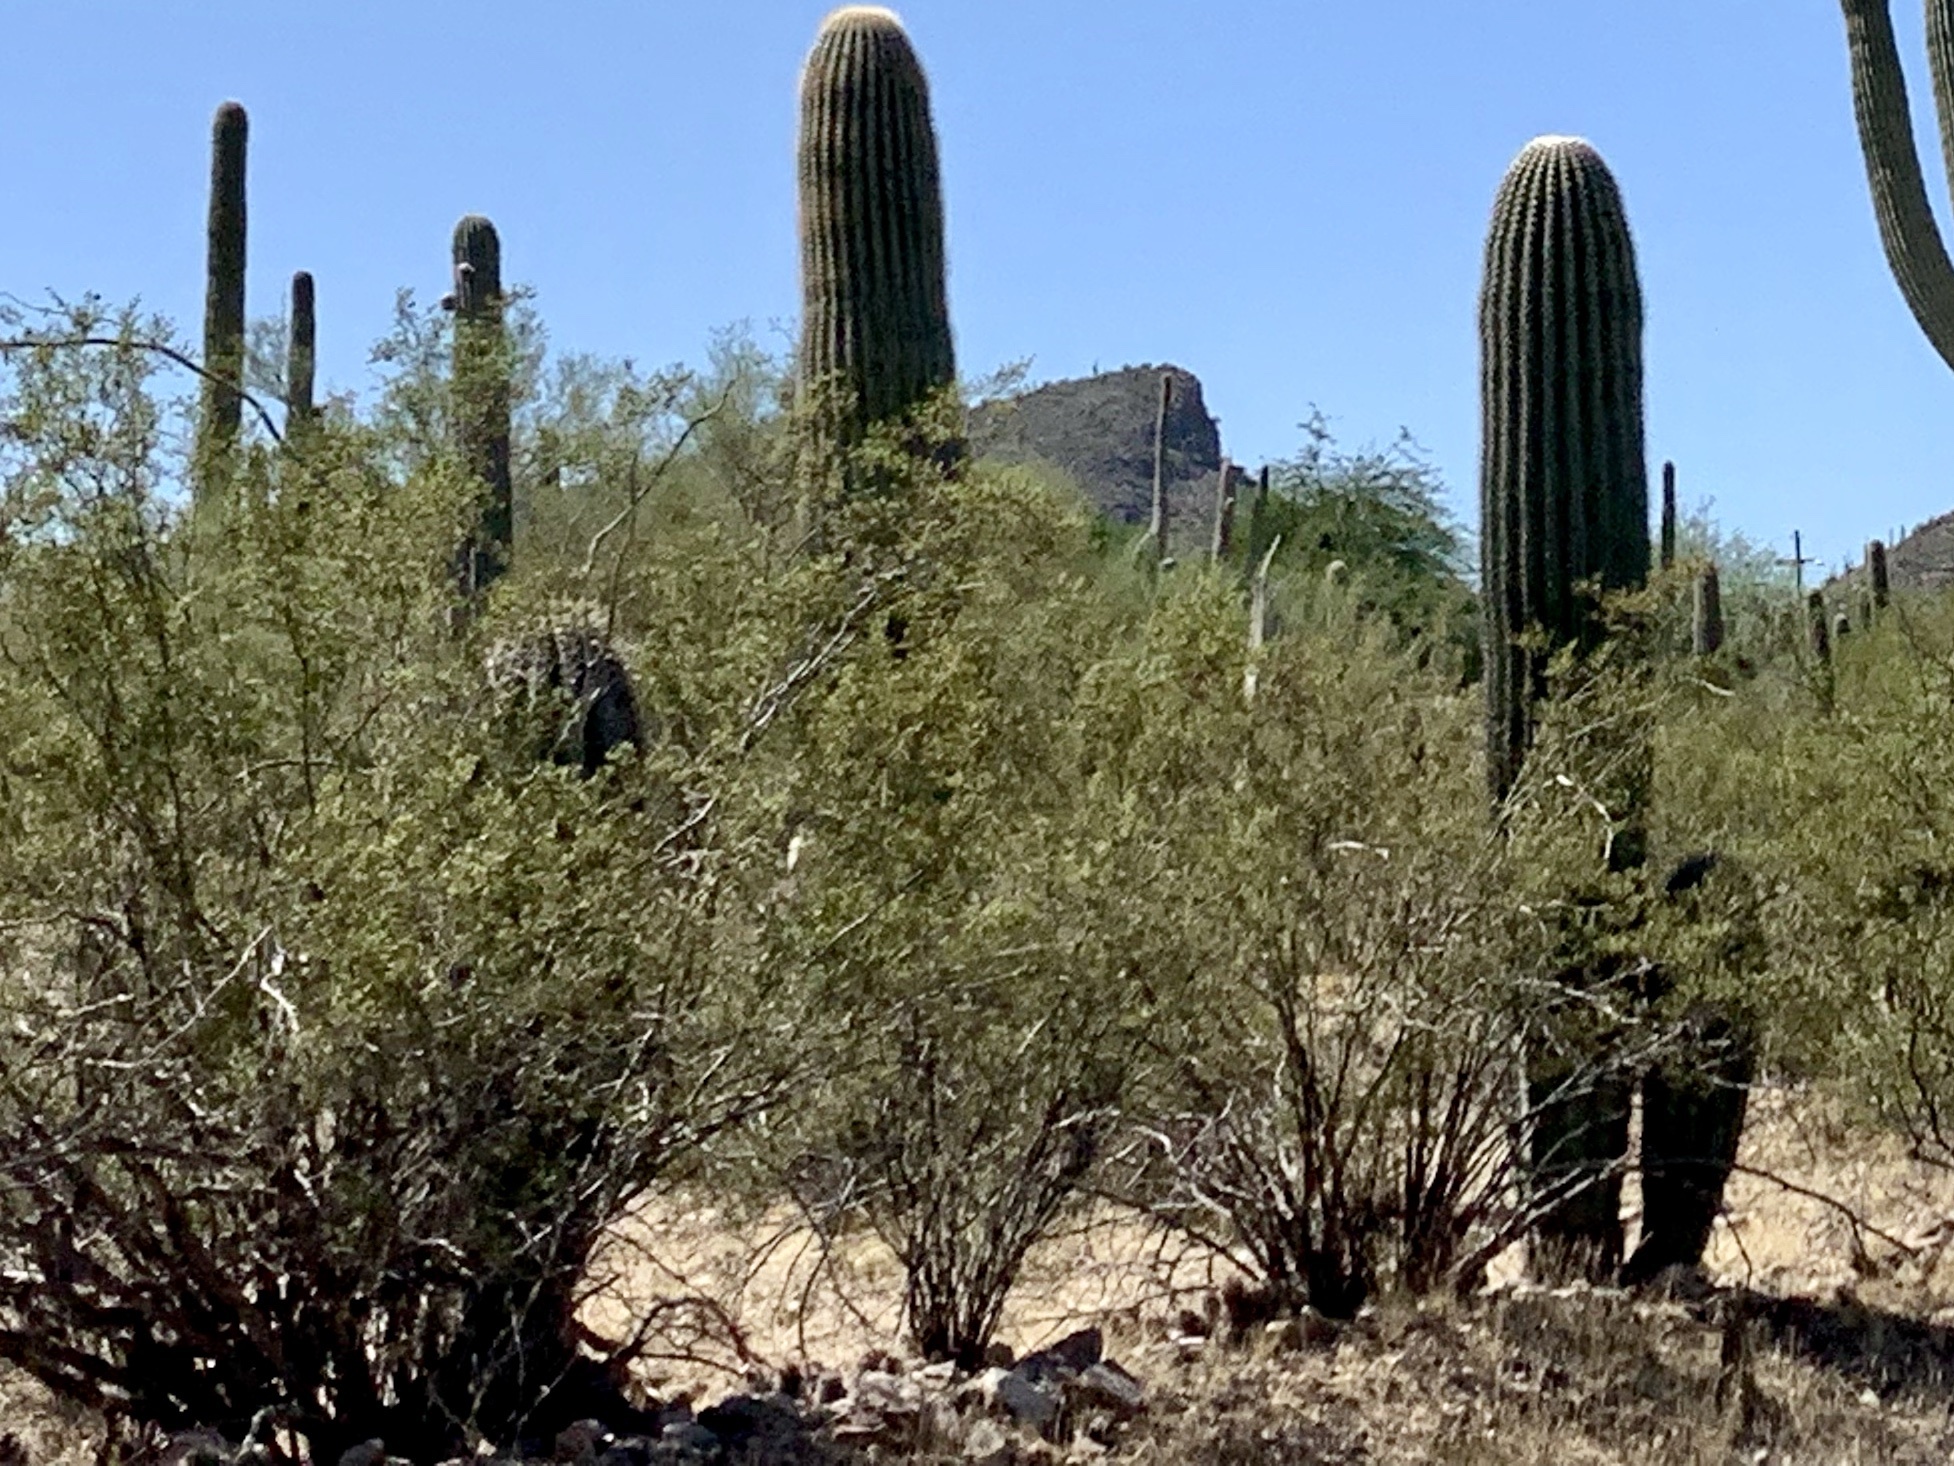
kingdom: Plantae
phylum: Tracheophyta
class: Magnoliopsida
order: Zygophyllales
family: Zygophyllaceae
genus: Larrea
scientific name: Larrea tridentata
